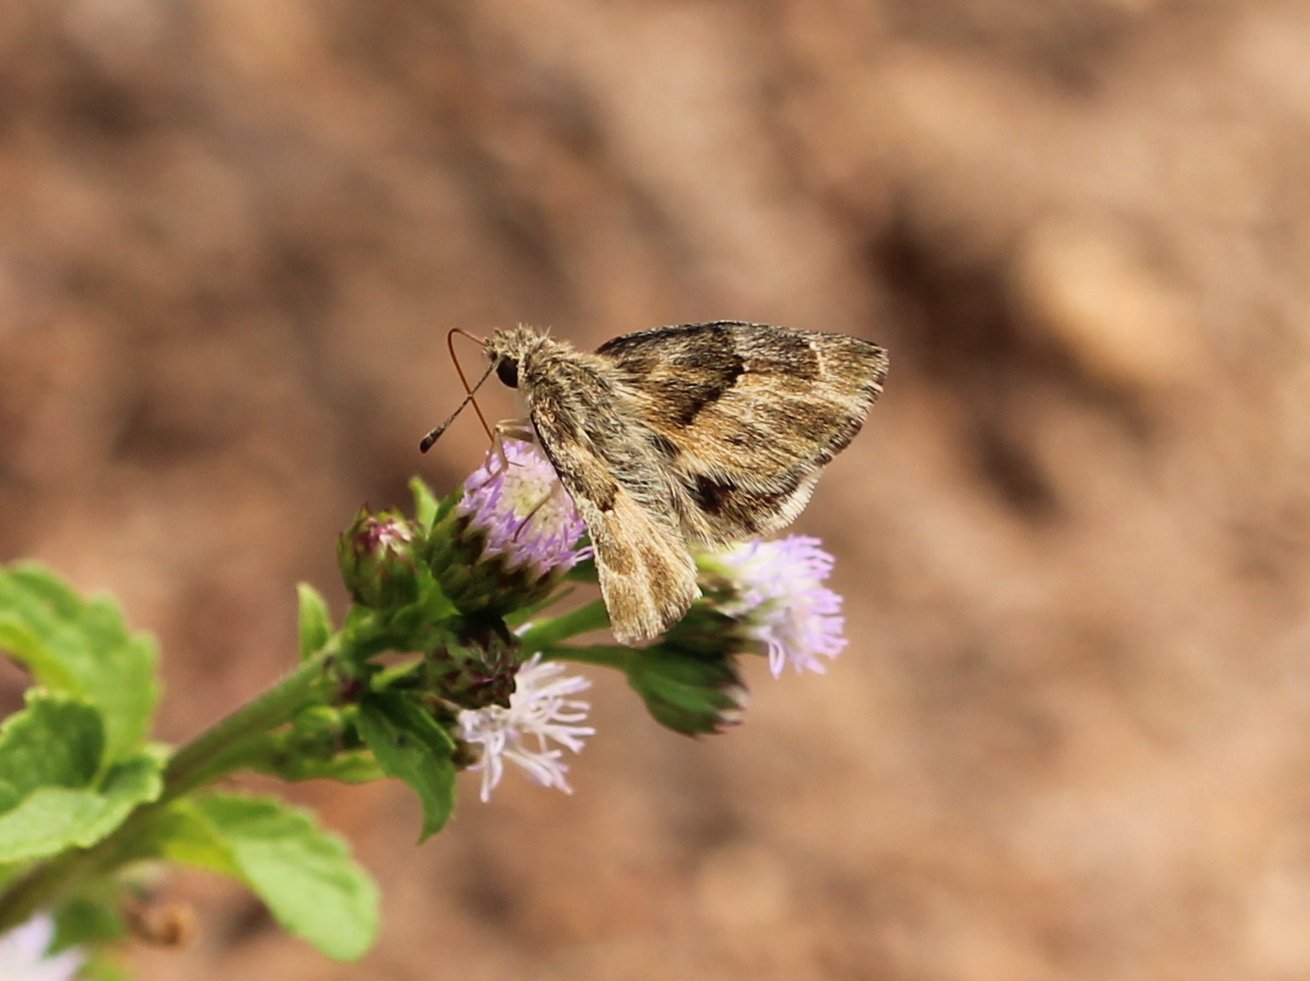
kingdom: Animalia
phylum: Arthropoda
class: Insecta
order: Lepidoptera
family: Hesperiidae
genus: Gomalia
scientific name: Gomalia elma
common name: Green-marbled skipper
